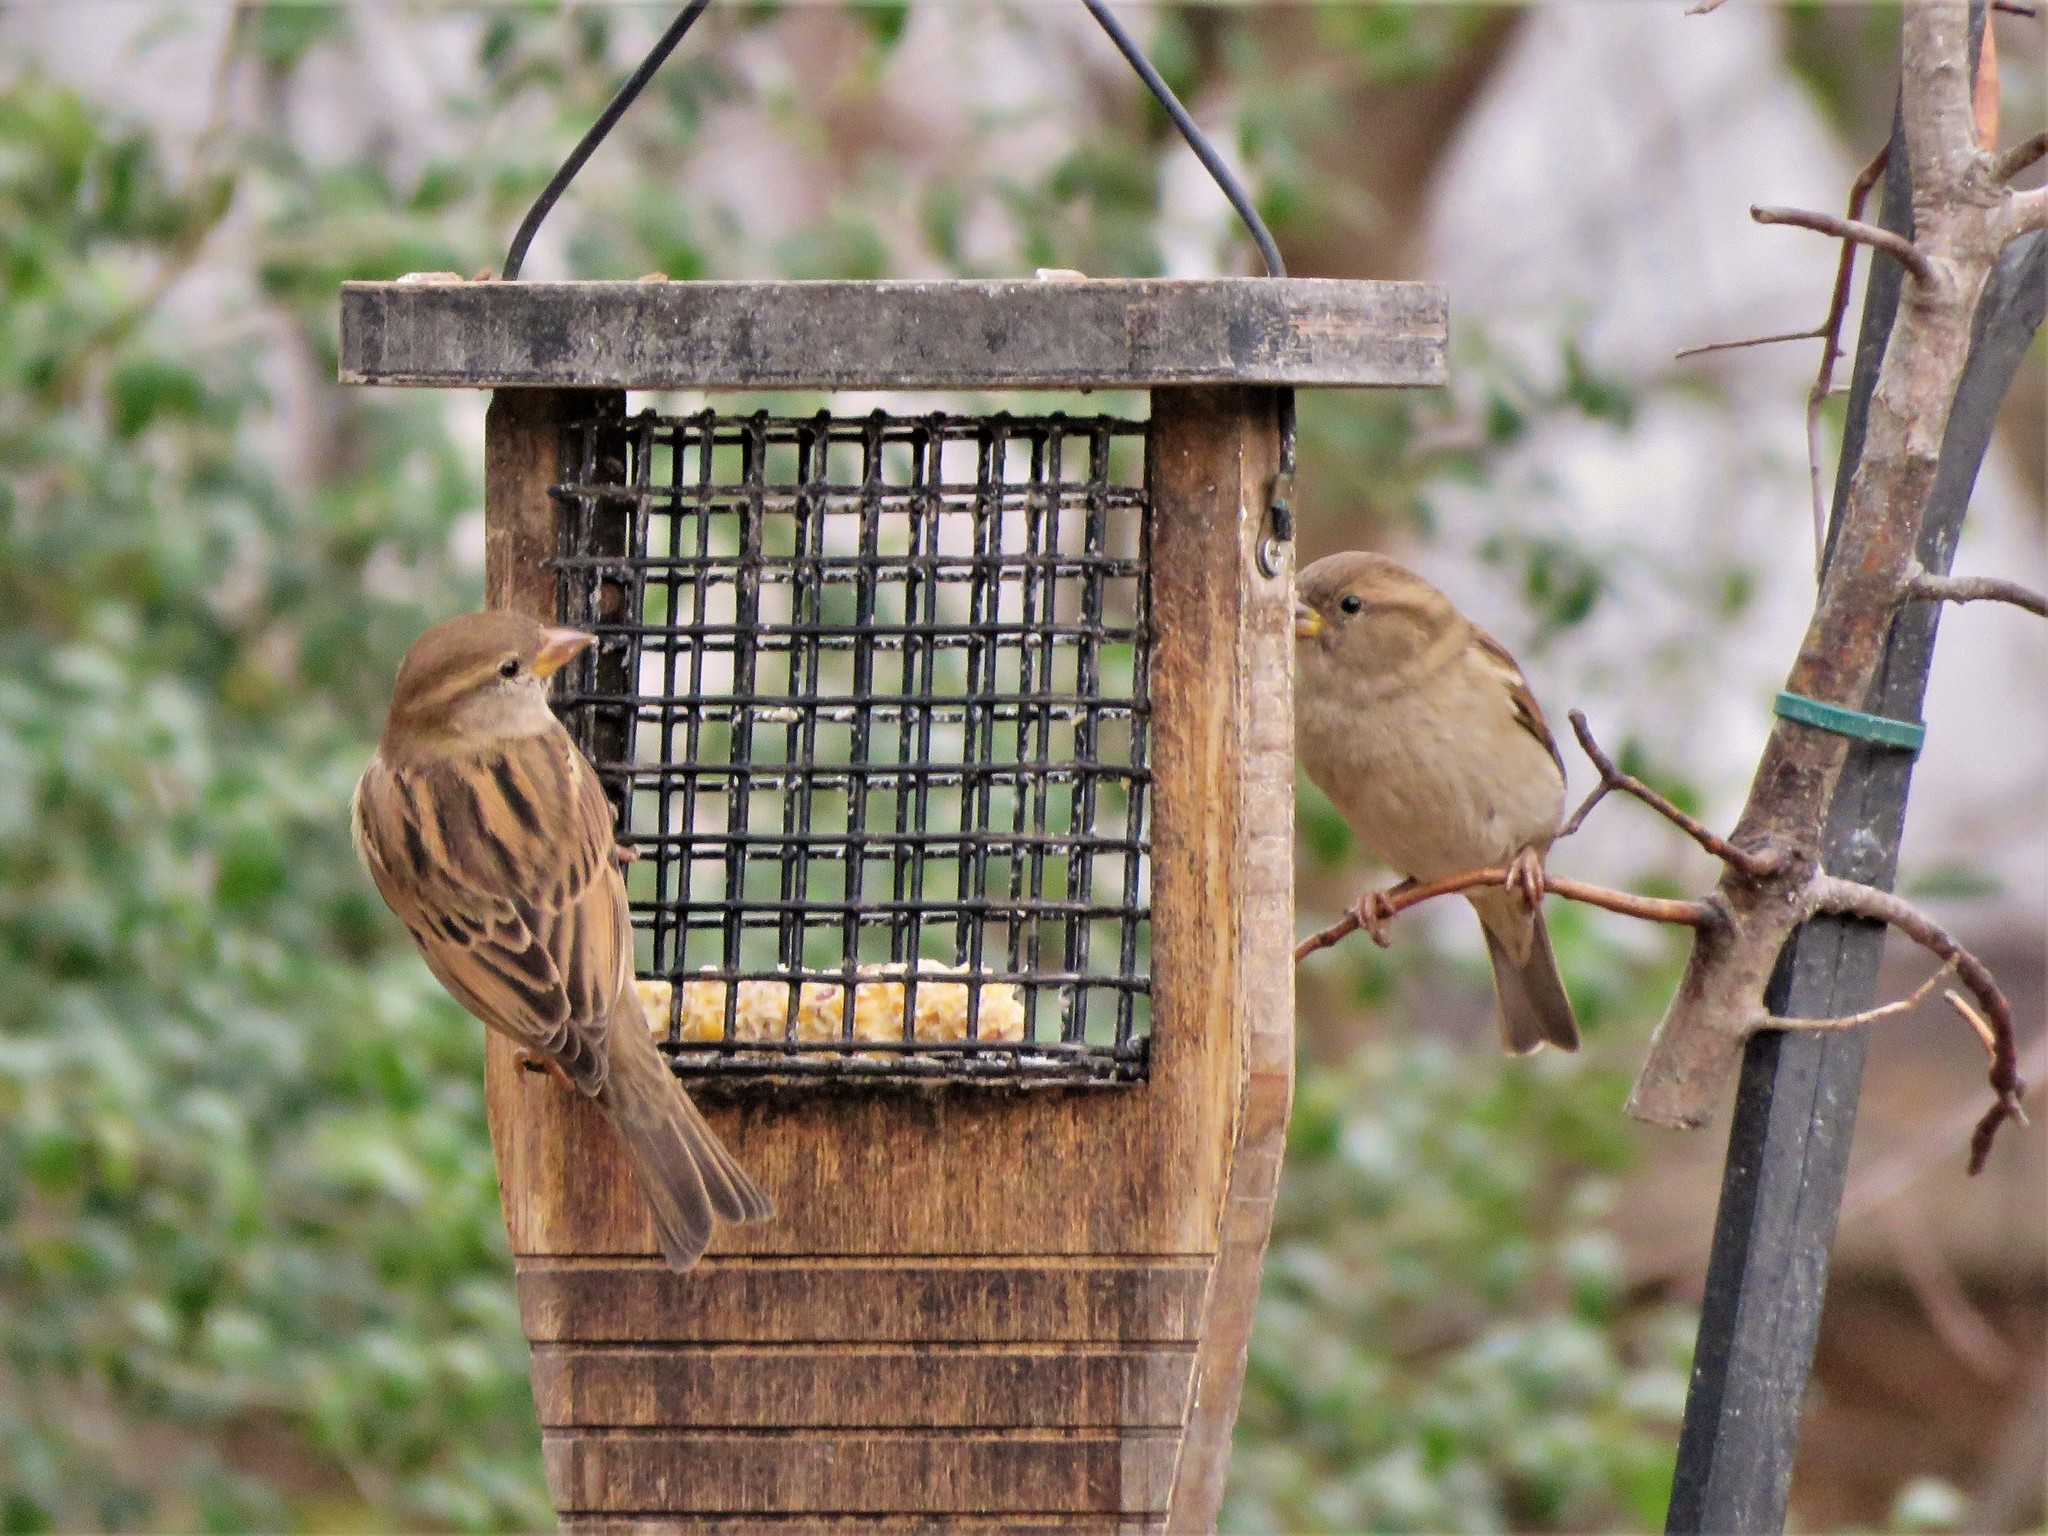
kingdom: Animalia
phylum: Chordata
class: Aves
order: Passeriformes
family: Passeridae
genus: Passer
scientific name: Passer domesticus
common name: House sparrow
